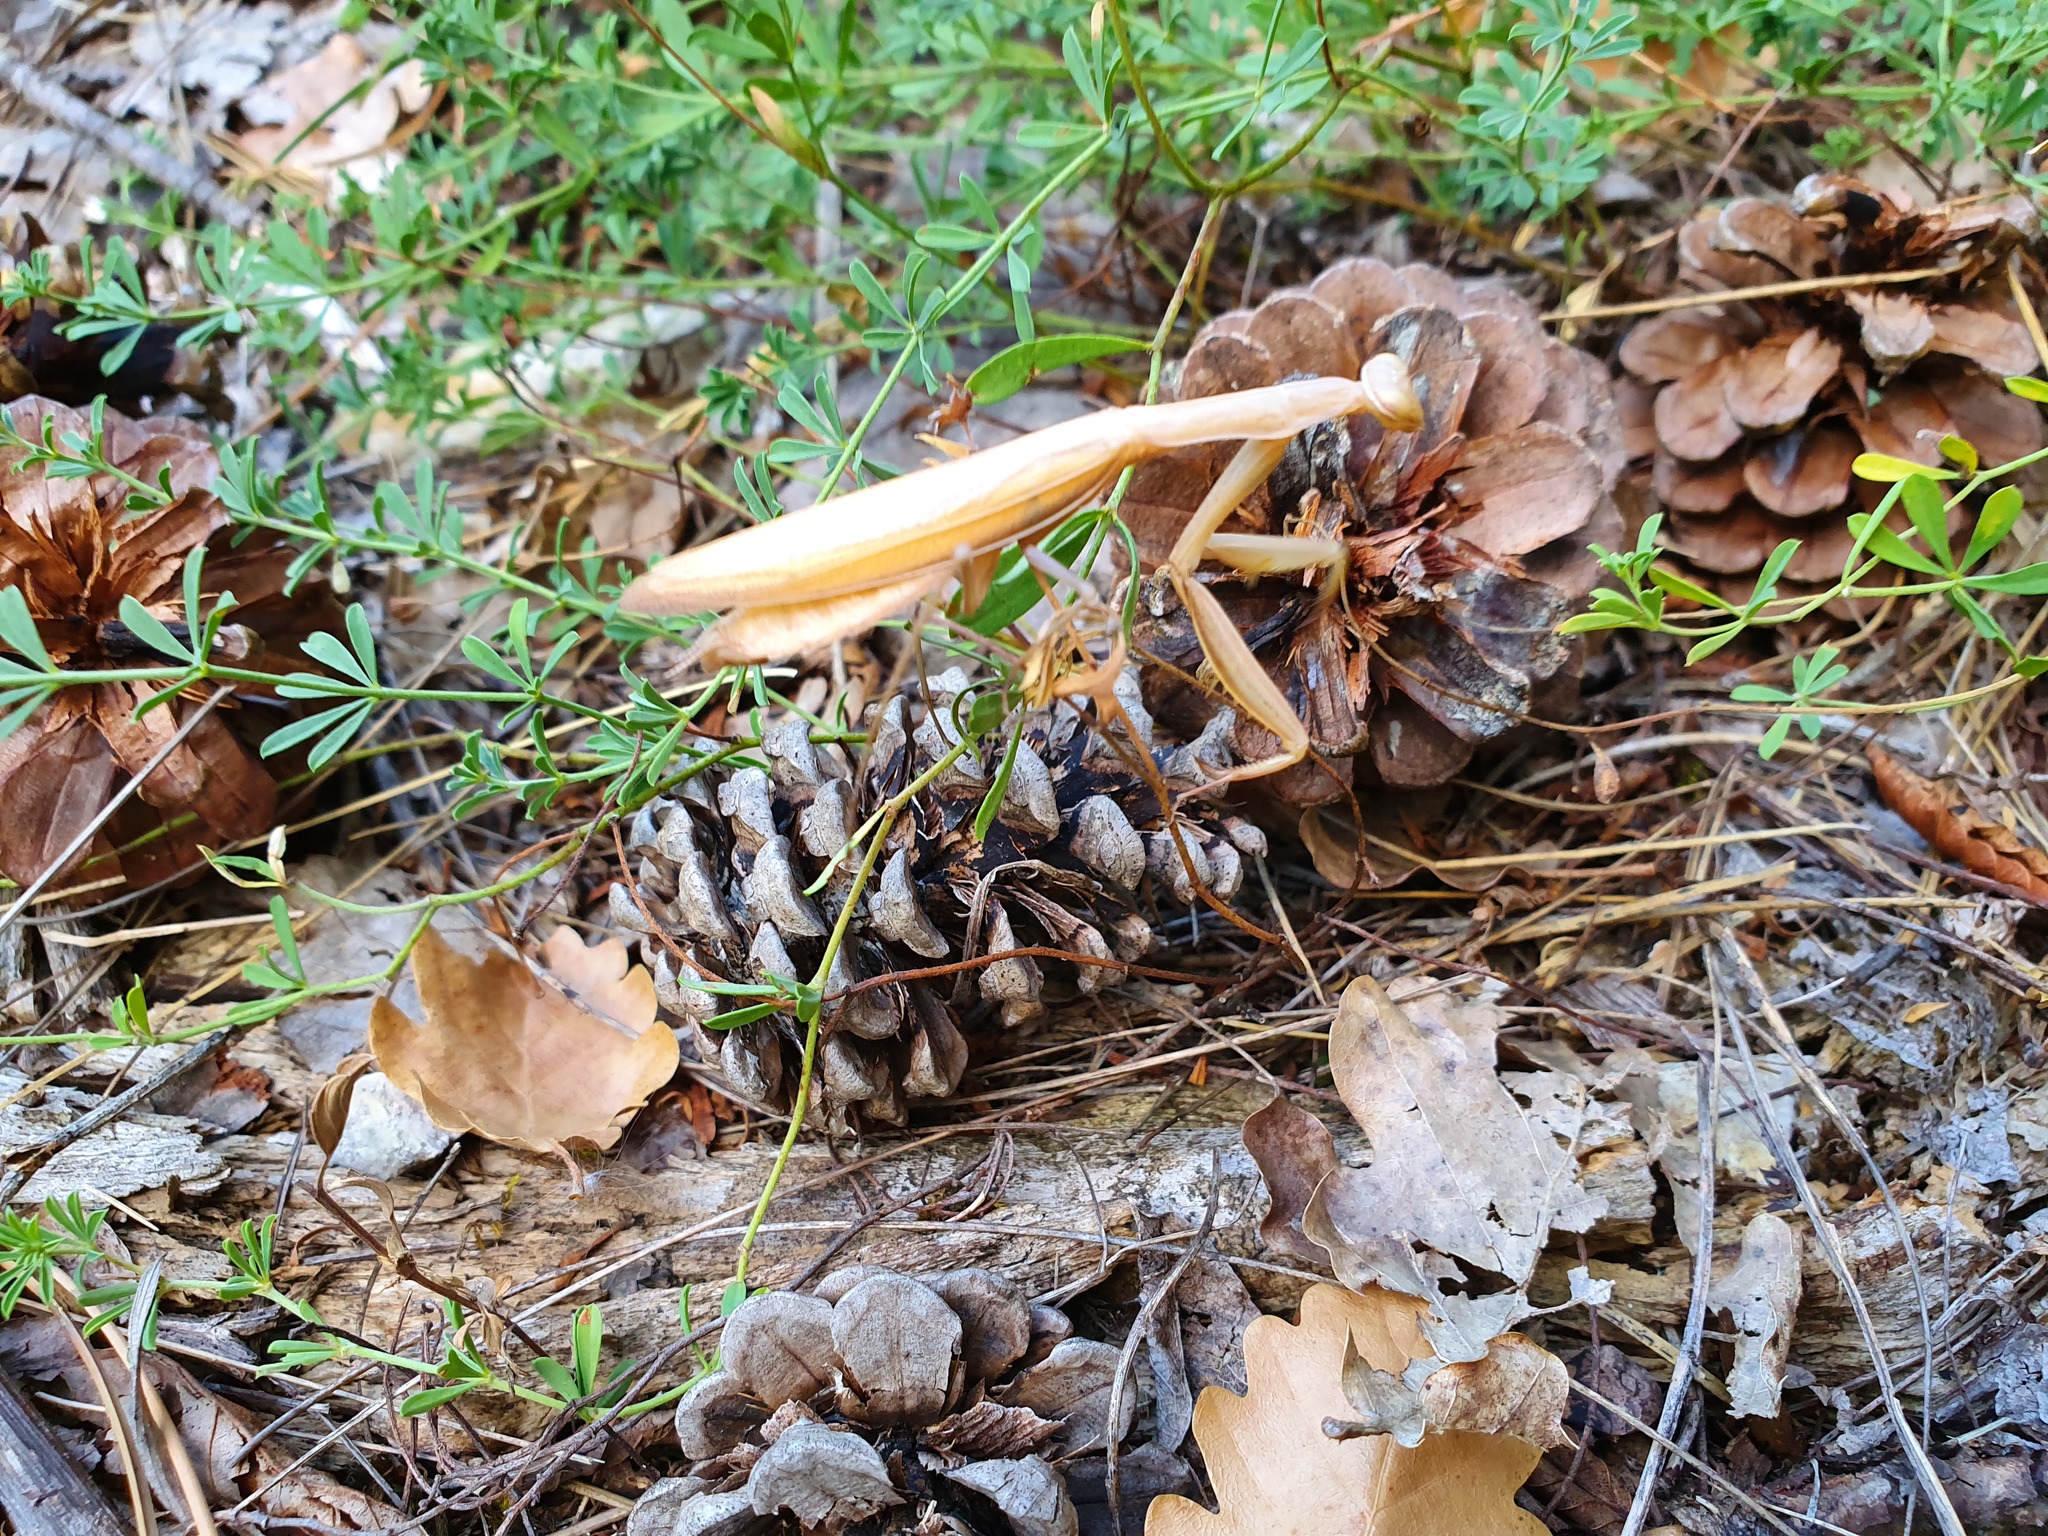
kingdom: Animalia
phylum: Arthropoda
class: Insecta
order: Mantodea
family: Mantidae
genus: Mantis
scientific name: Mantis religiosa
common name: Praying mantis
